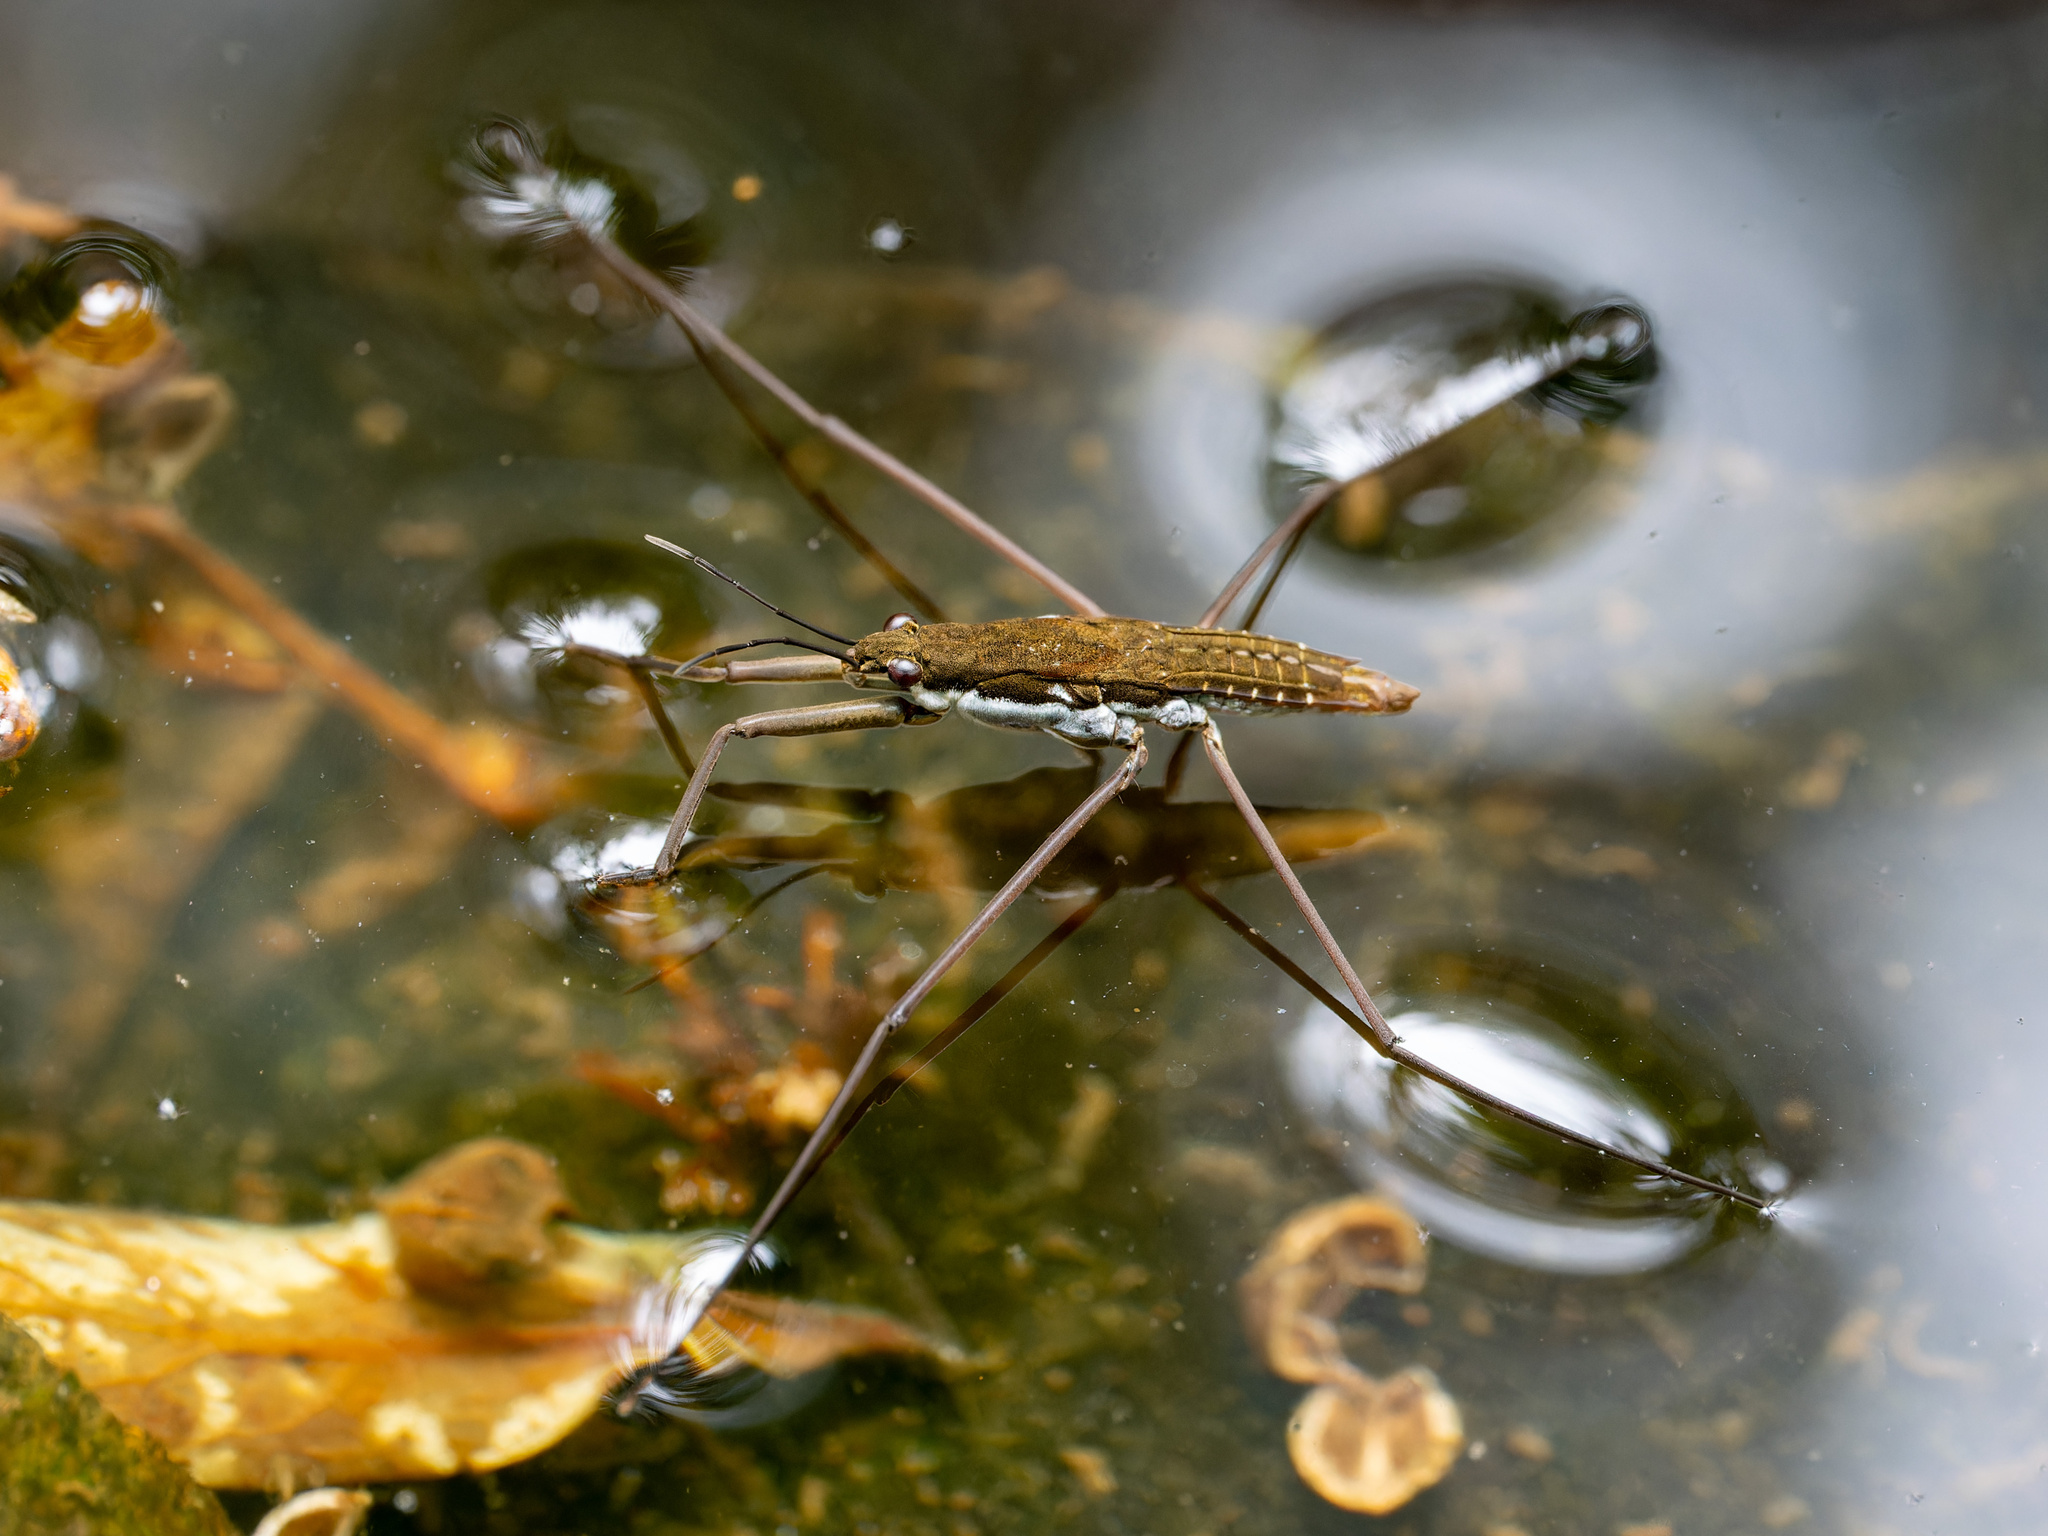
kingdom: Animalia
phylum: Arthropoda
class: Insecta
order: Hemiptera
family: Gerridae
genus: Aquarius
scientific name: Aquarius remigis
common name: Common water strider
